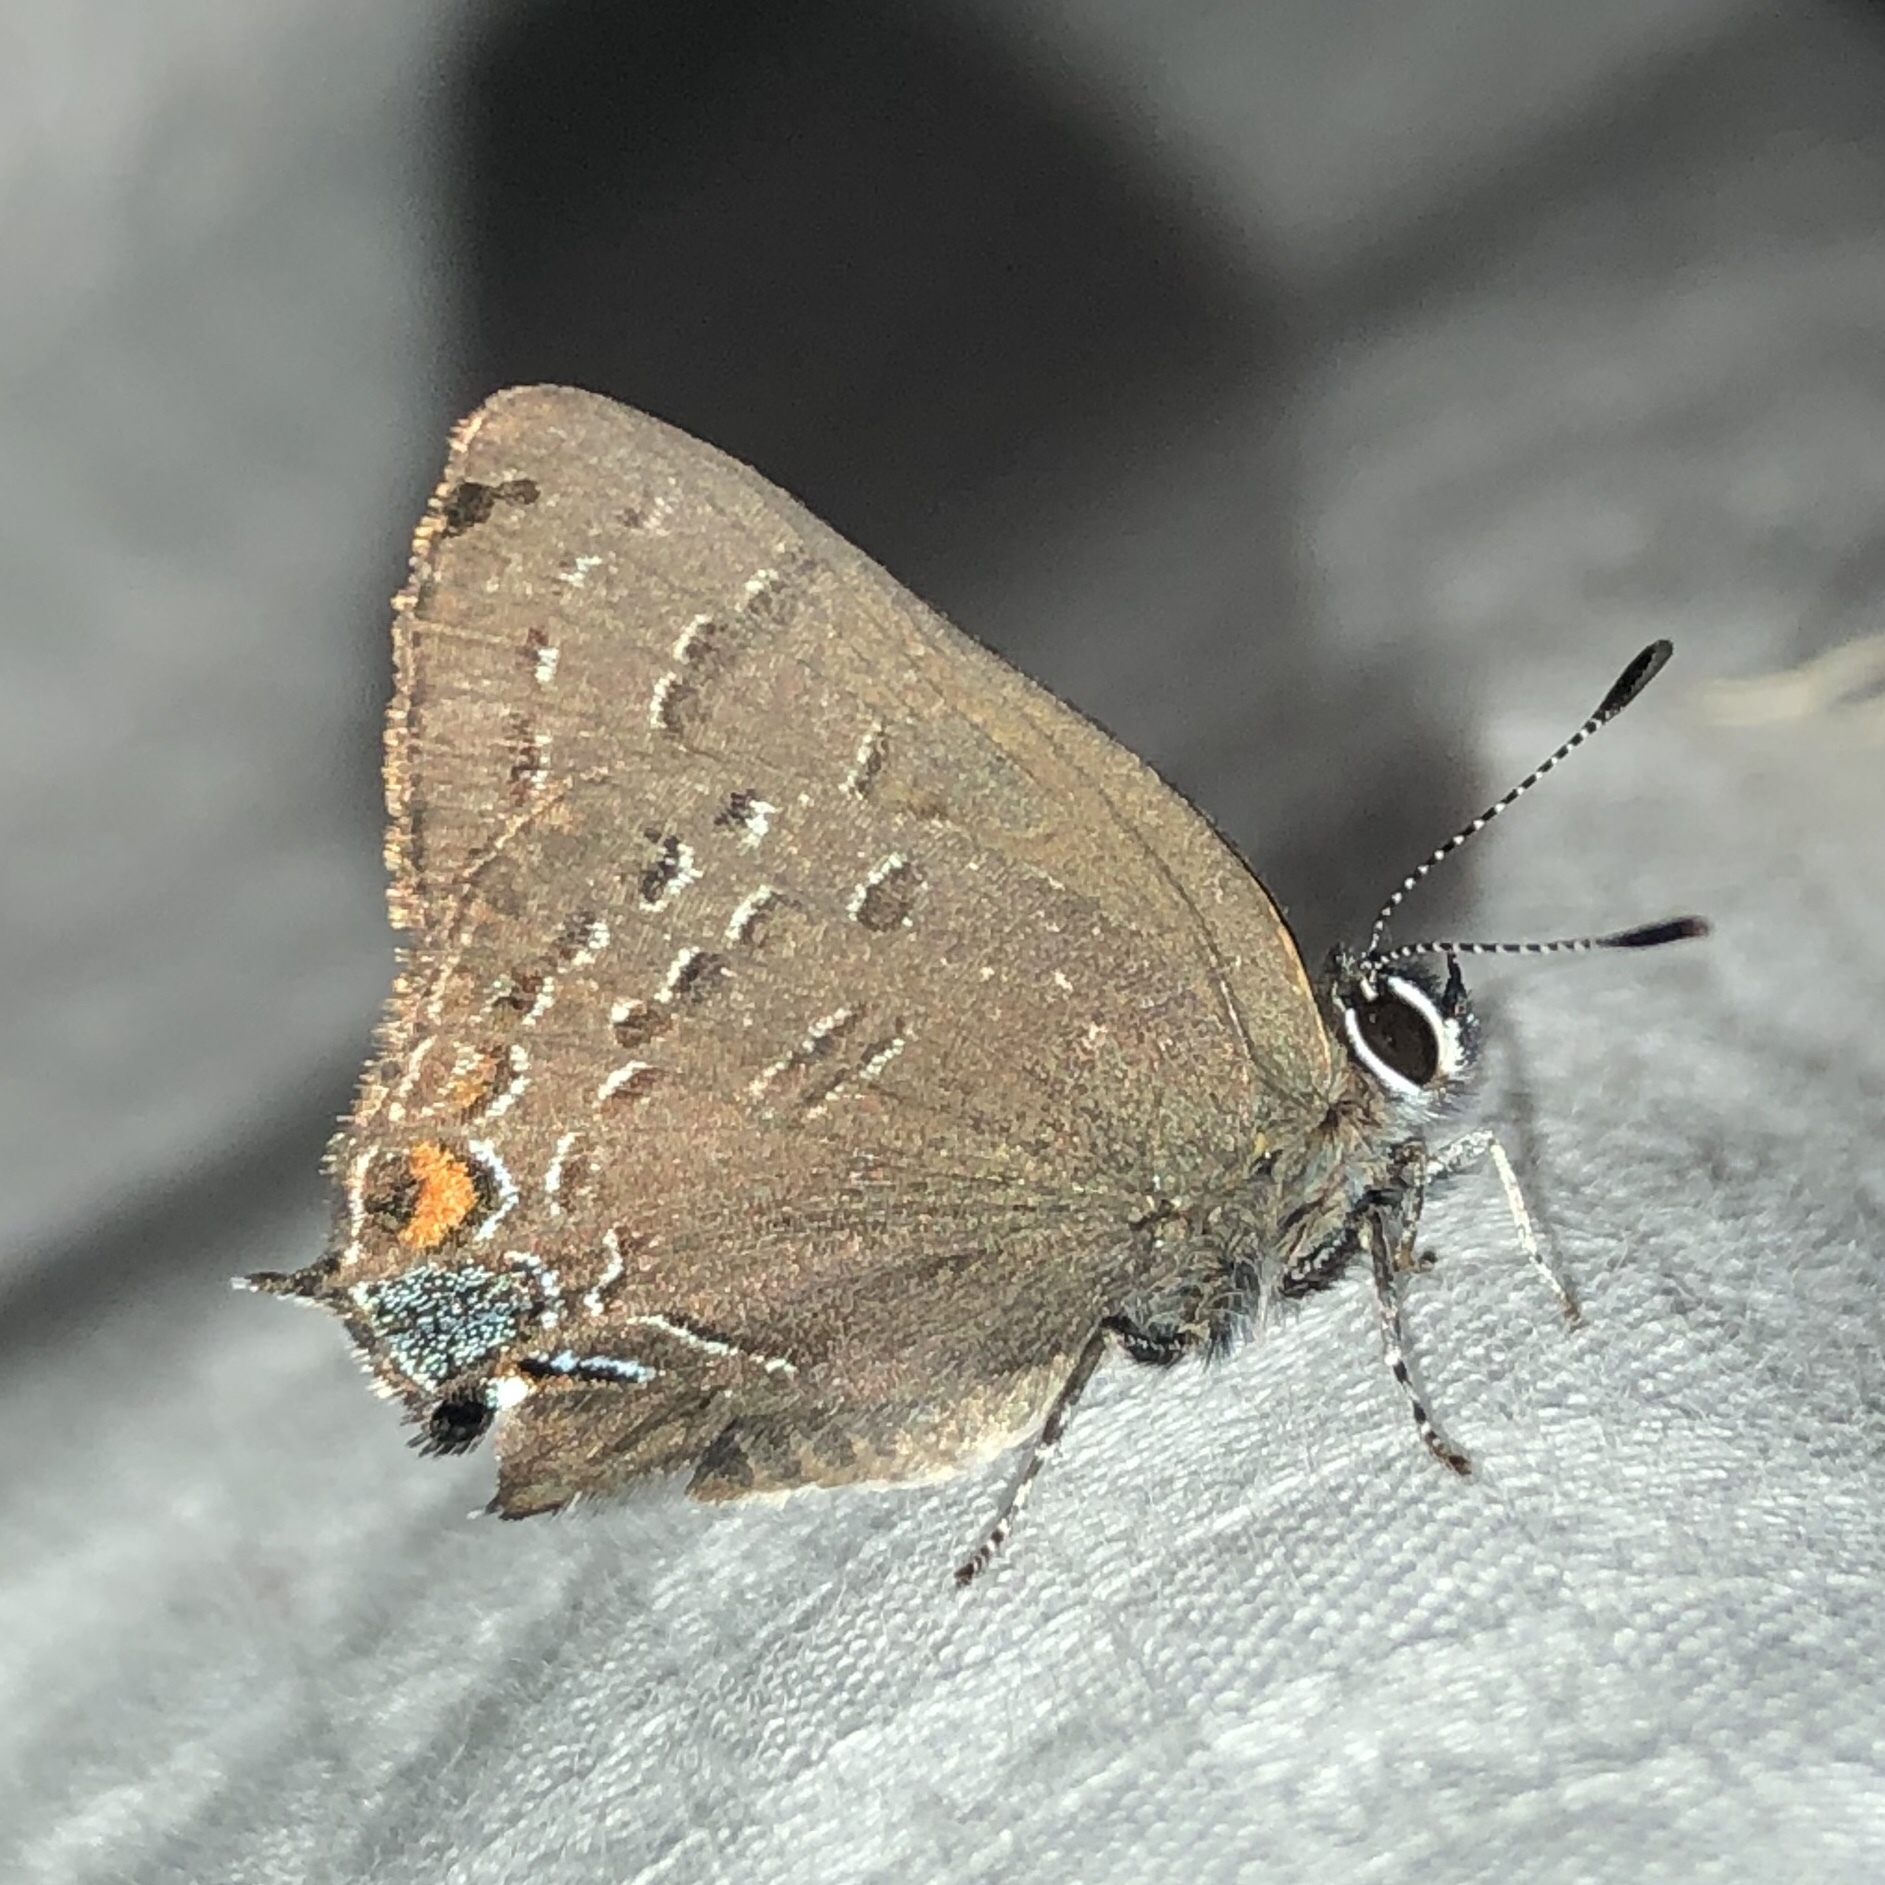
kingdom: Animalia
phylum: Arthropoda
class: Insecta
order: Lepidoptera
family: Lycaenidae
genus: Satyrium
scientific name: Satyrium calanus
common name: Banded hairstreak
